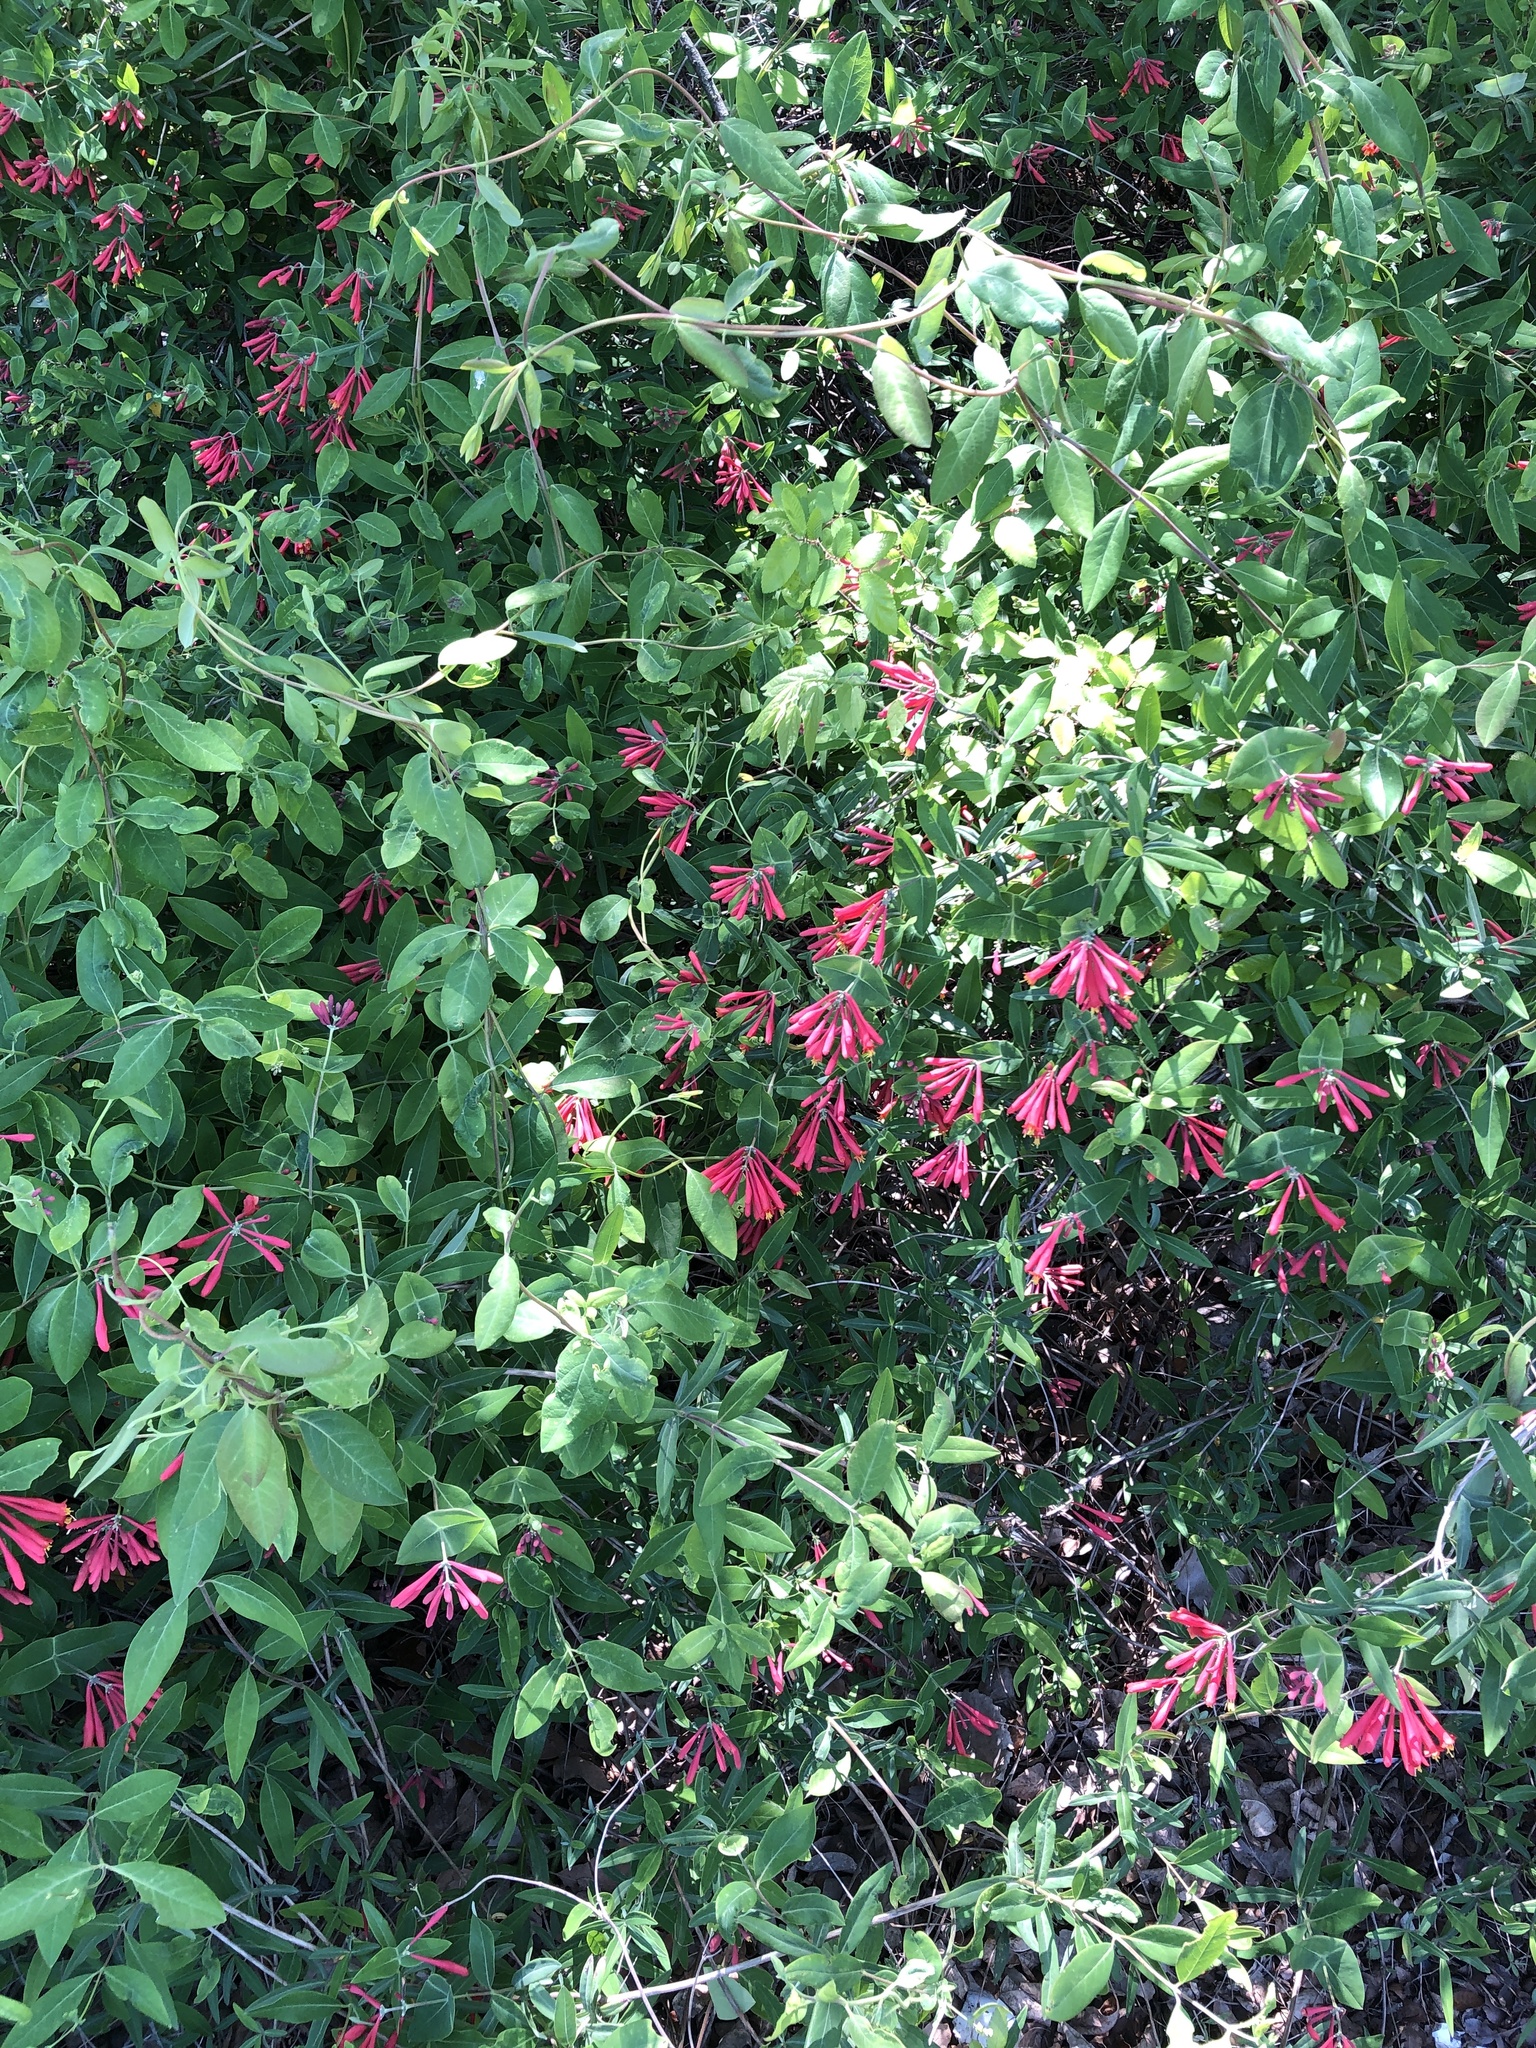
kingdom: Plantae
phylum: Tracheophyta
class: Magnoliopsida
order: Dipsacales
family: Caprifoliaceae
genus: Lonicera
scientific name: Lonicera sempervirens
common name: Coral honeysuckle
